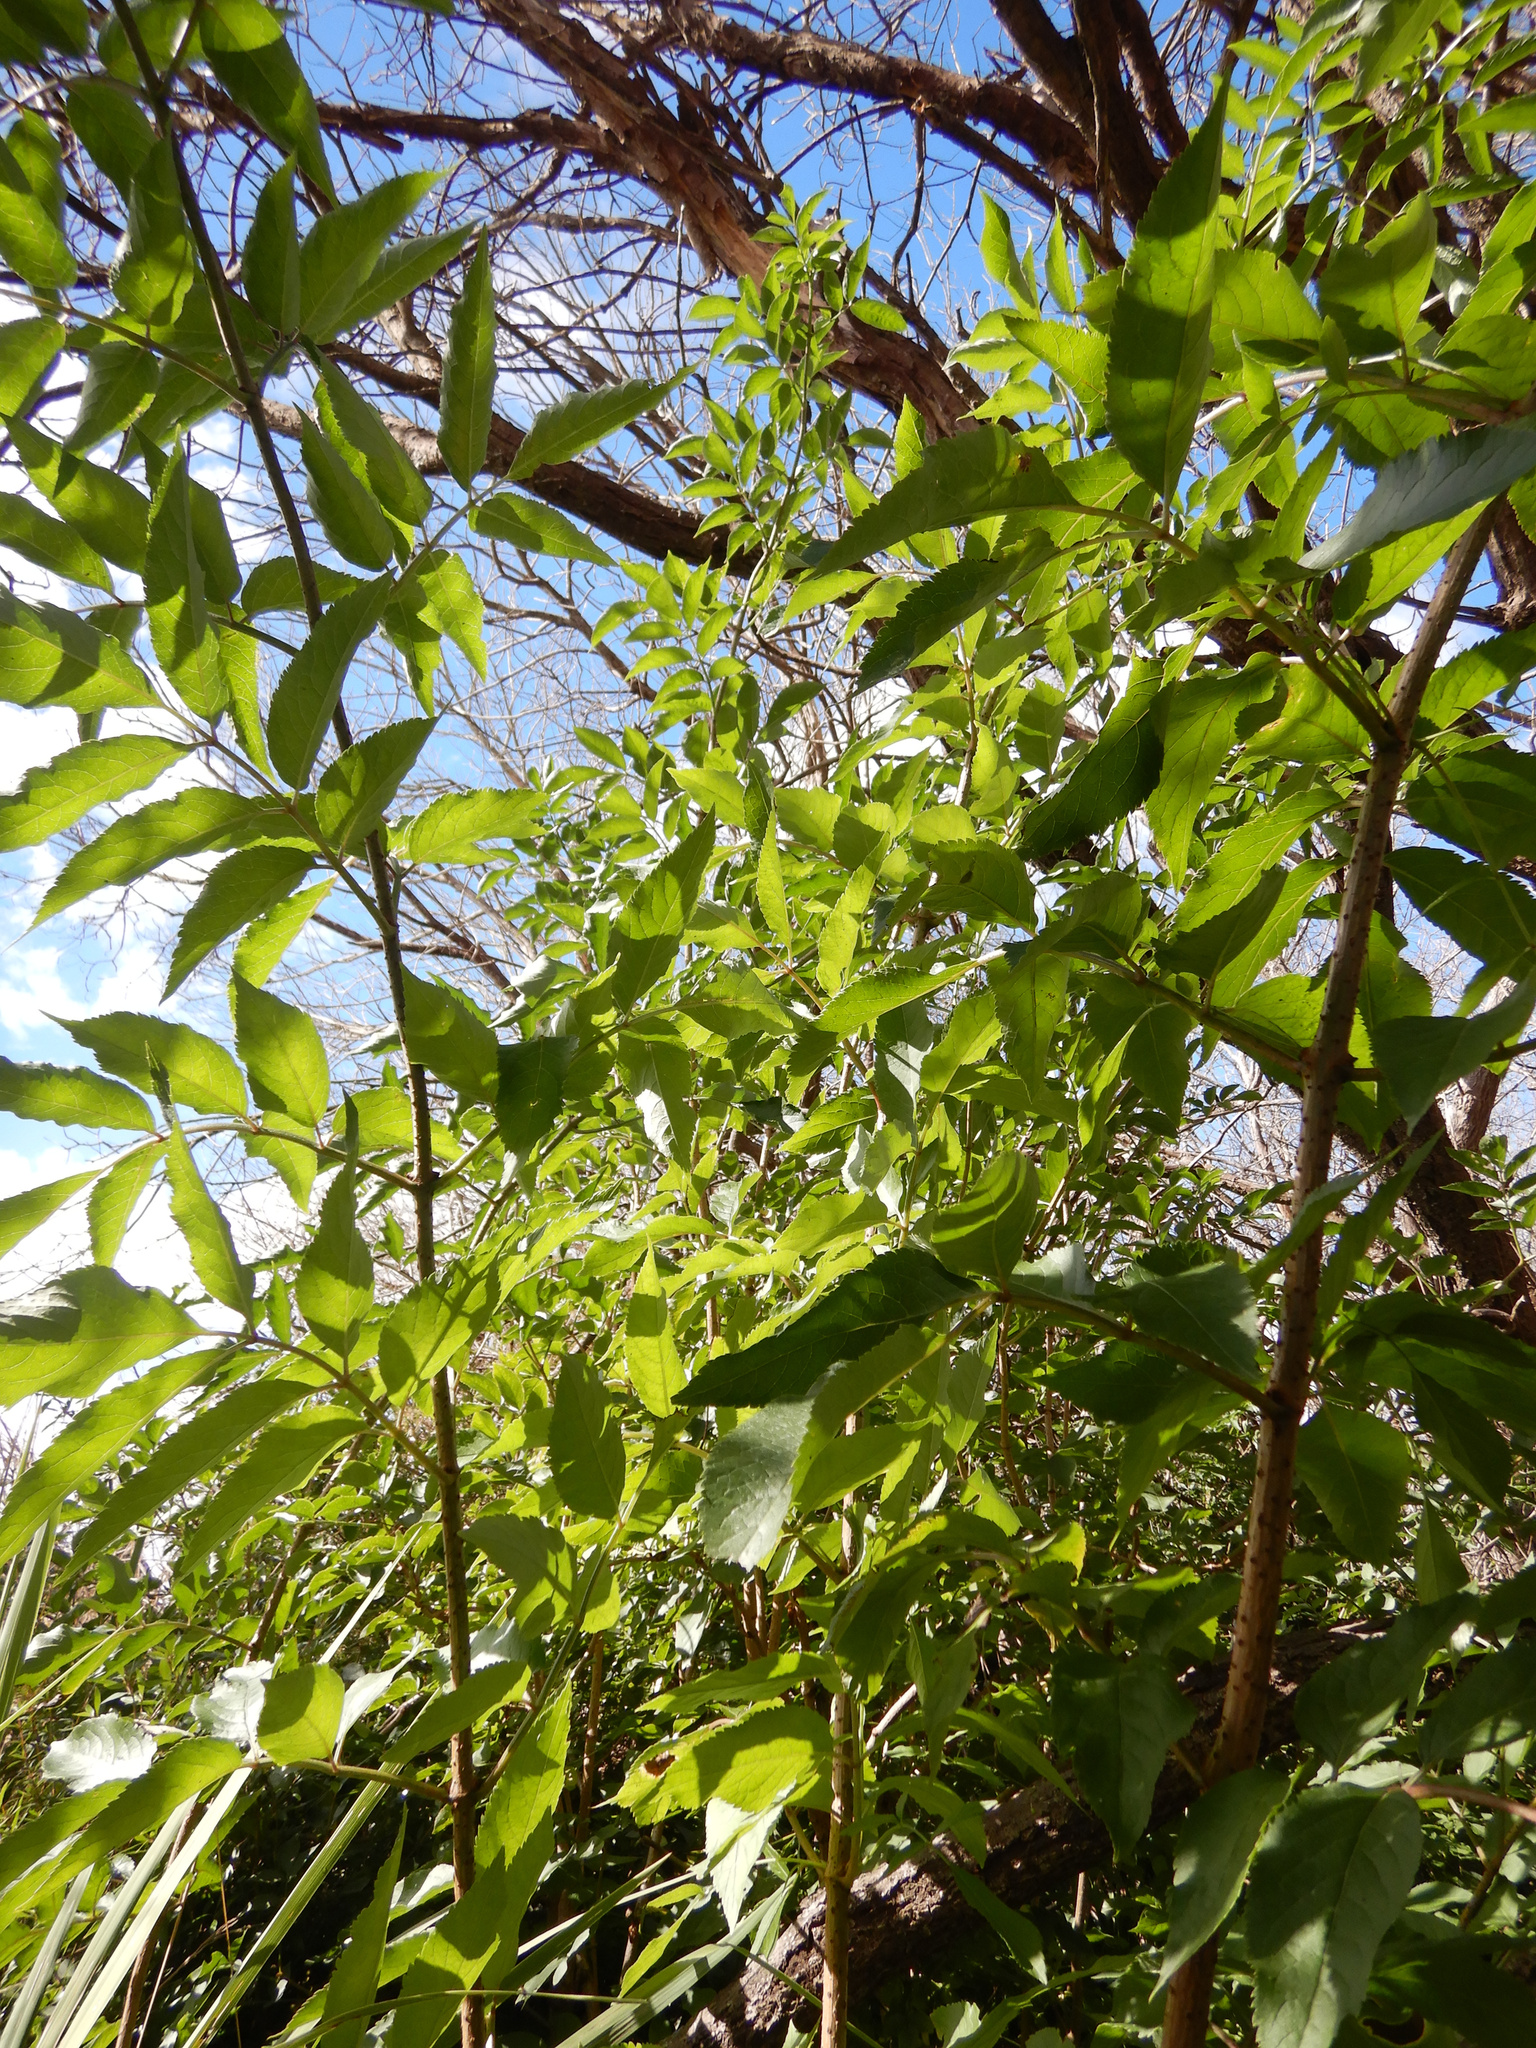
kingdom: Plantae
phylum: Tracheophyta
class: Magnoliopsida
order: Dipsacales
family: Viburnaceae
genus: Sambucus
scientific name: Sambucus nigra
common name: Elder
